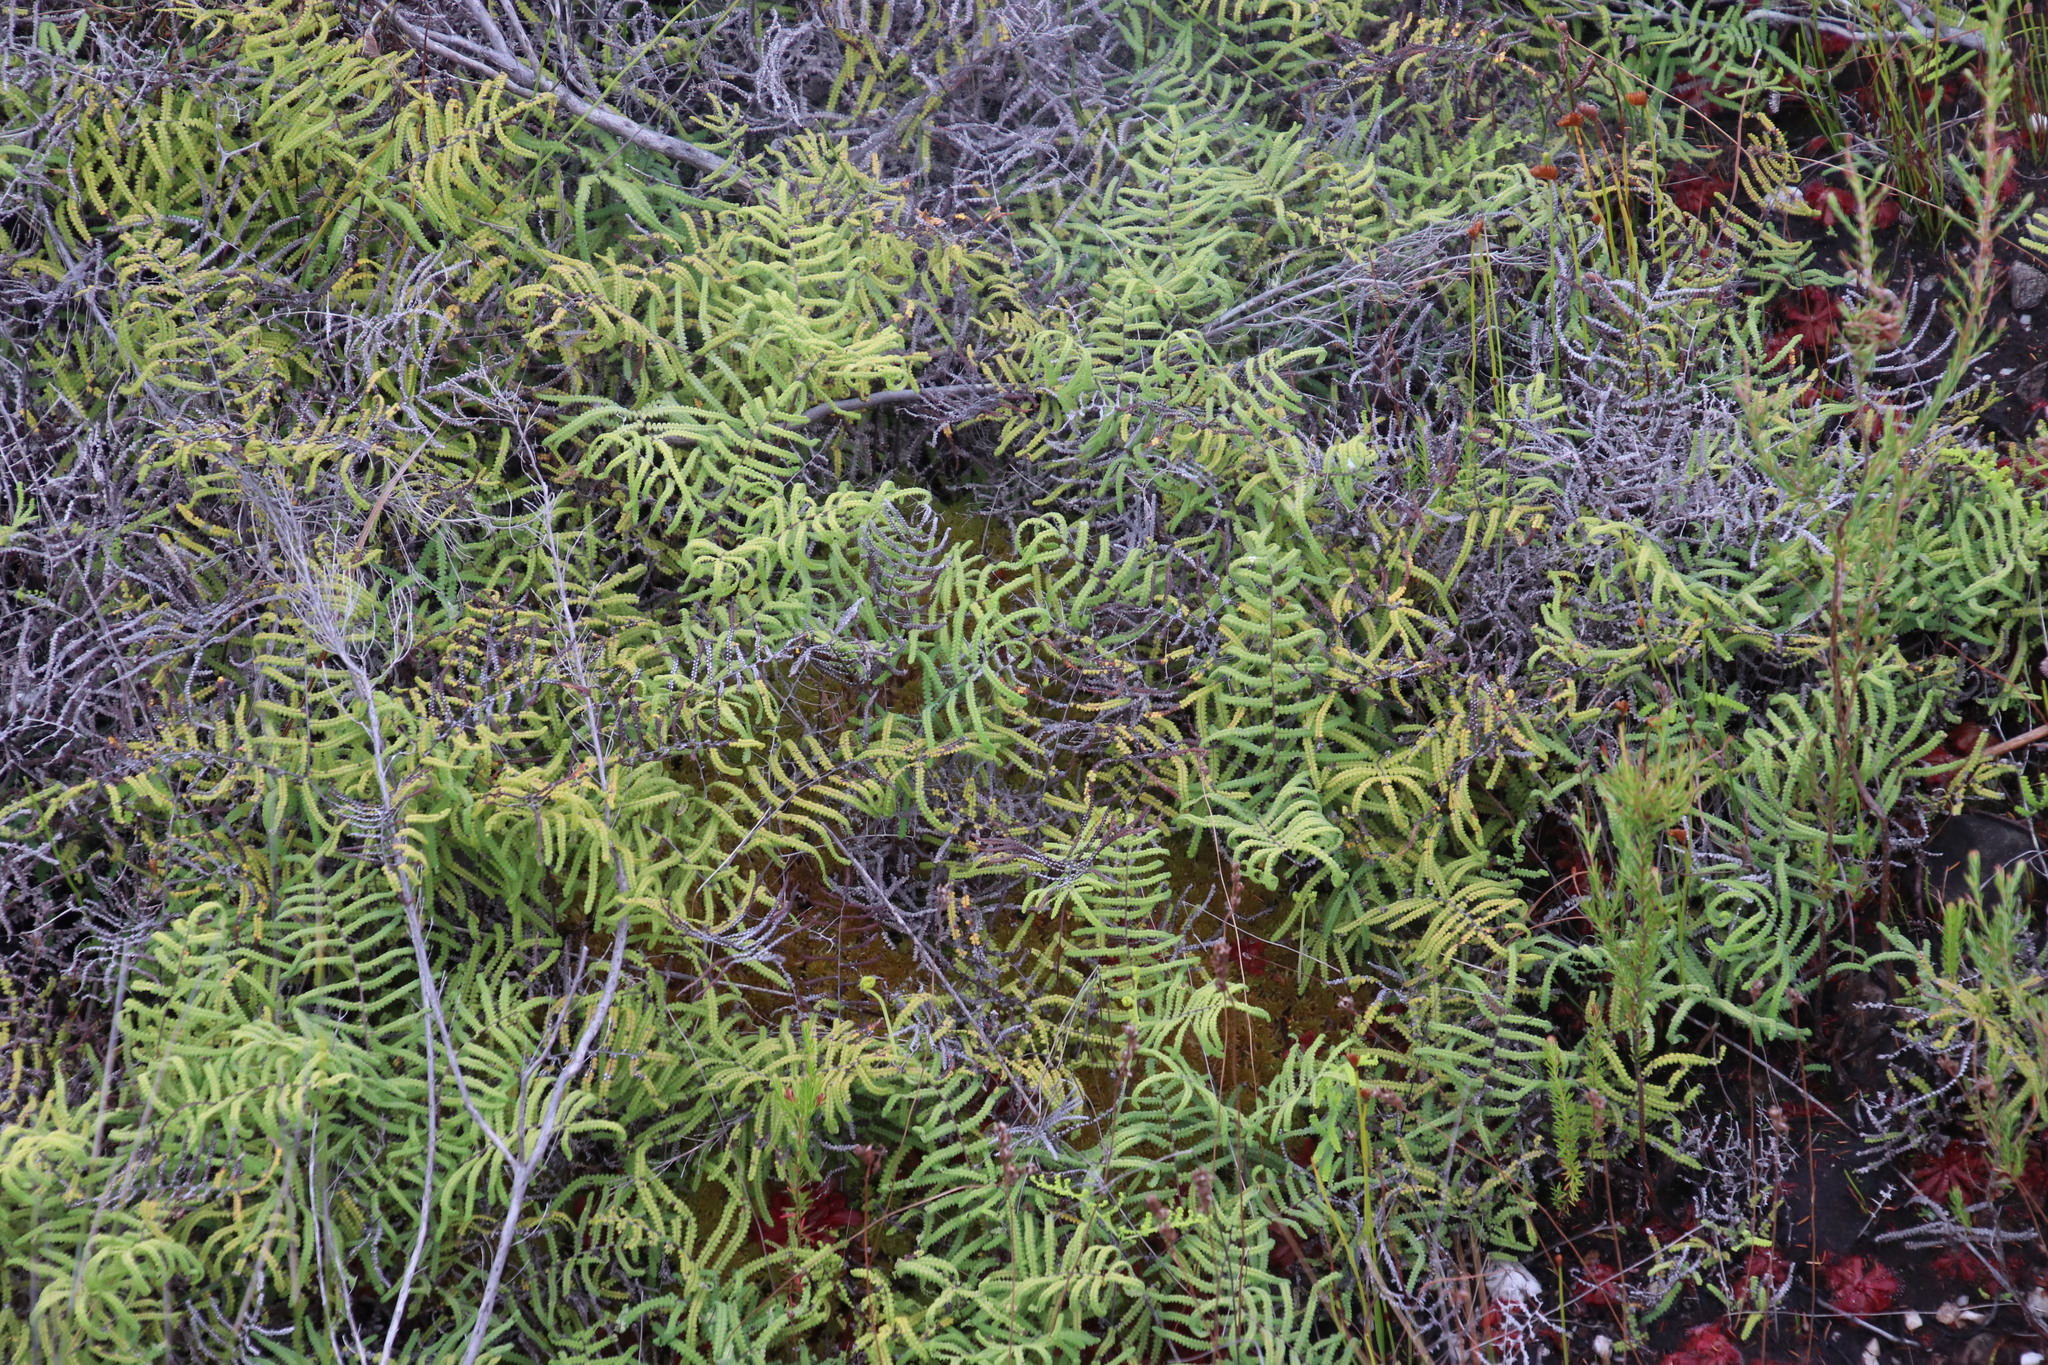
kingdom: Plantae
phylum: Tracheophyta
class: Polypodiopsida
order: Gleicheniales
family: Gleicheniaceae
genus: Gleichenia
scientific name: Gleichenia polypodioides
